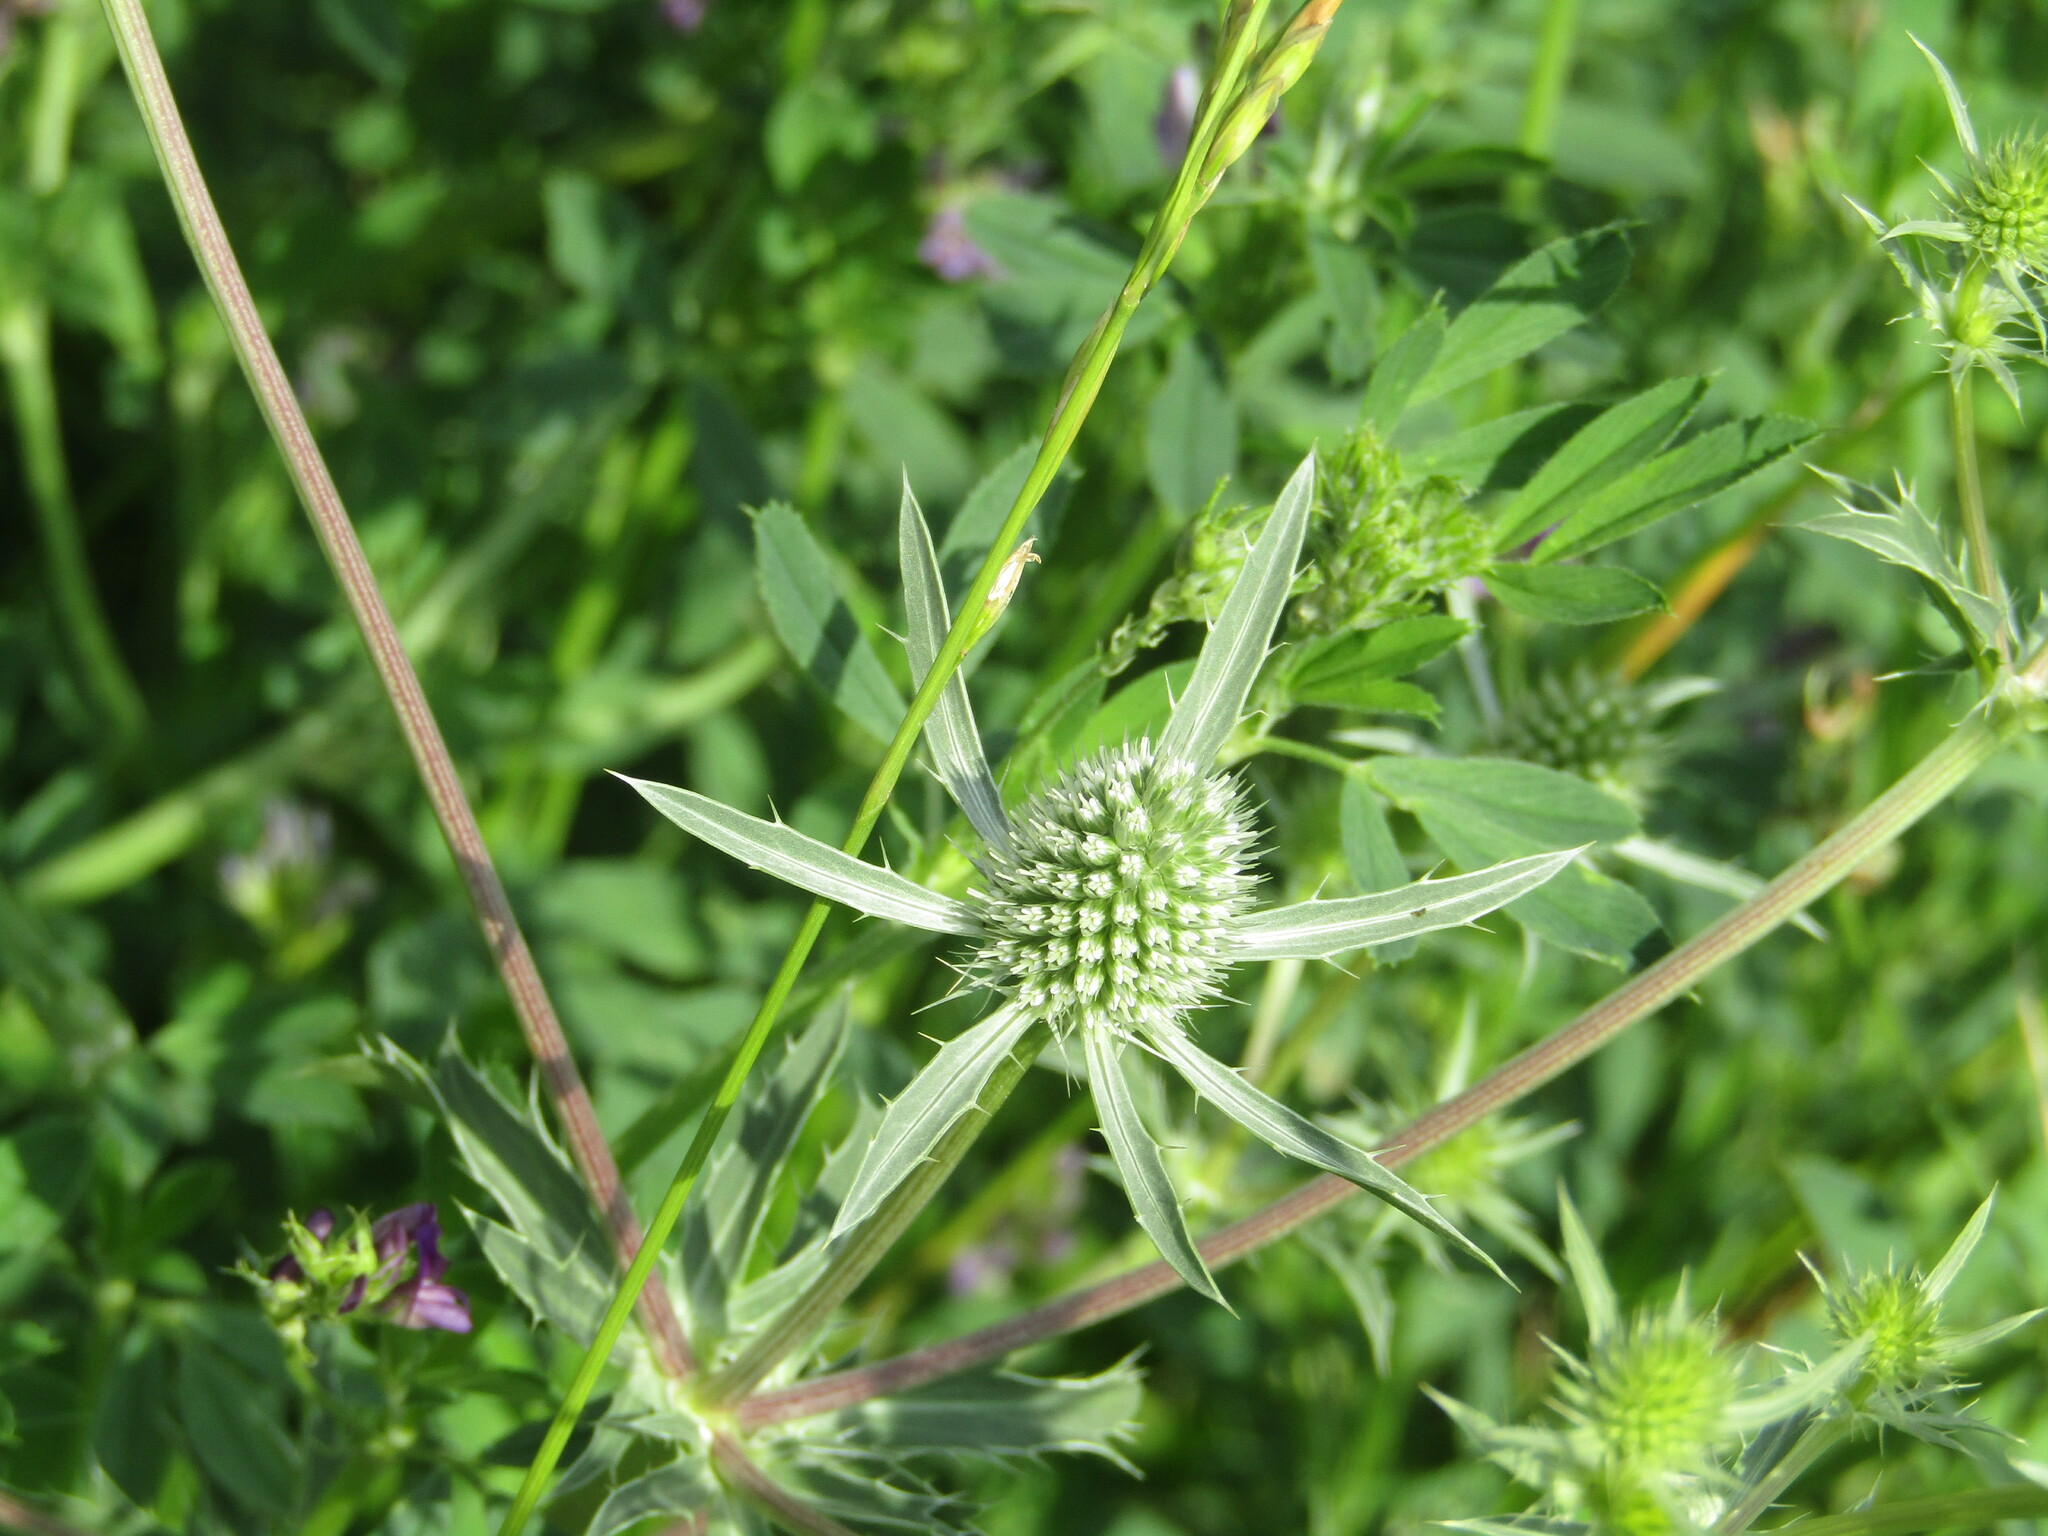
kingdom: Plantae
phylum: Tracheophyta
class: Magnoliopsida
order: Apiales
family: Apiaceae
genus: Eryngium
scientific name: Eryngium planum
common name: Blue eryngo
